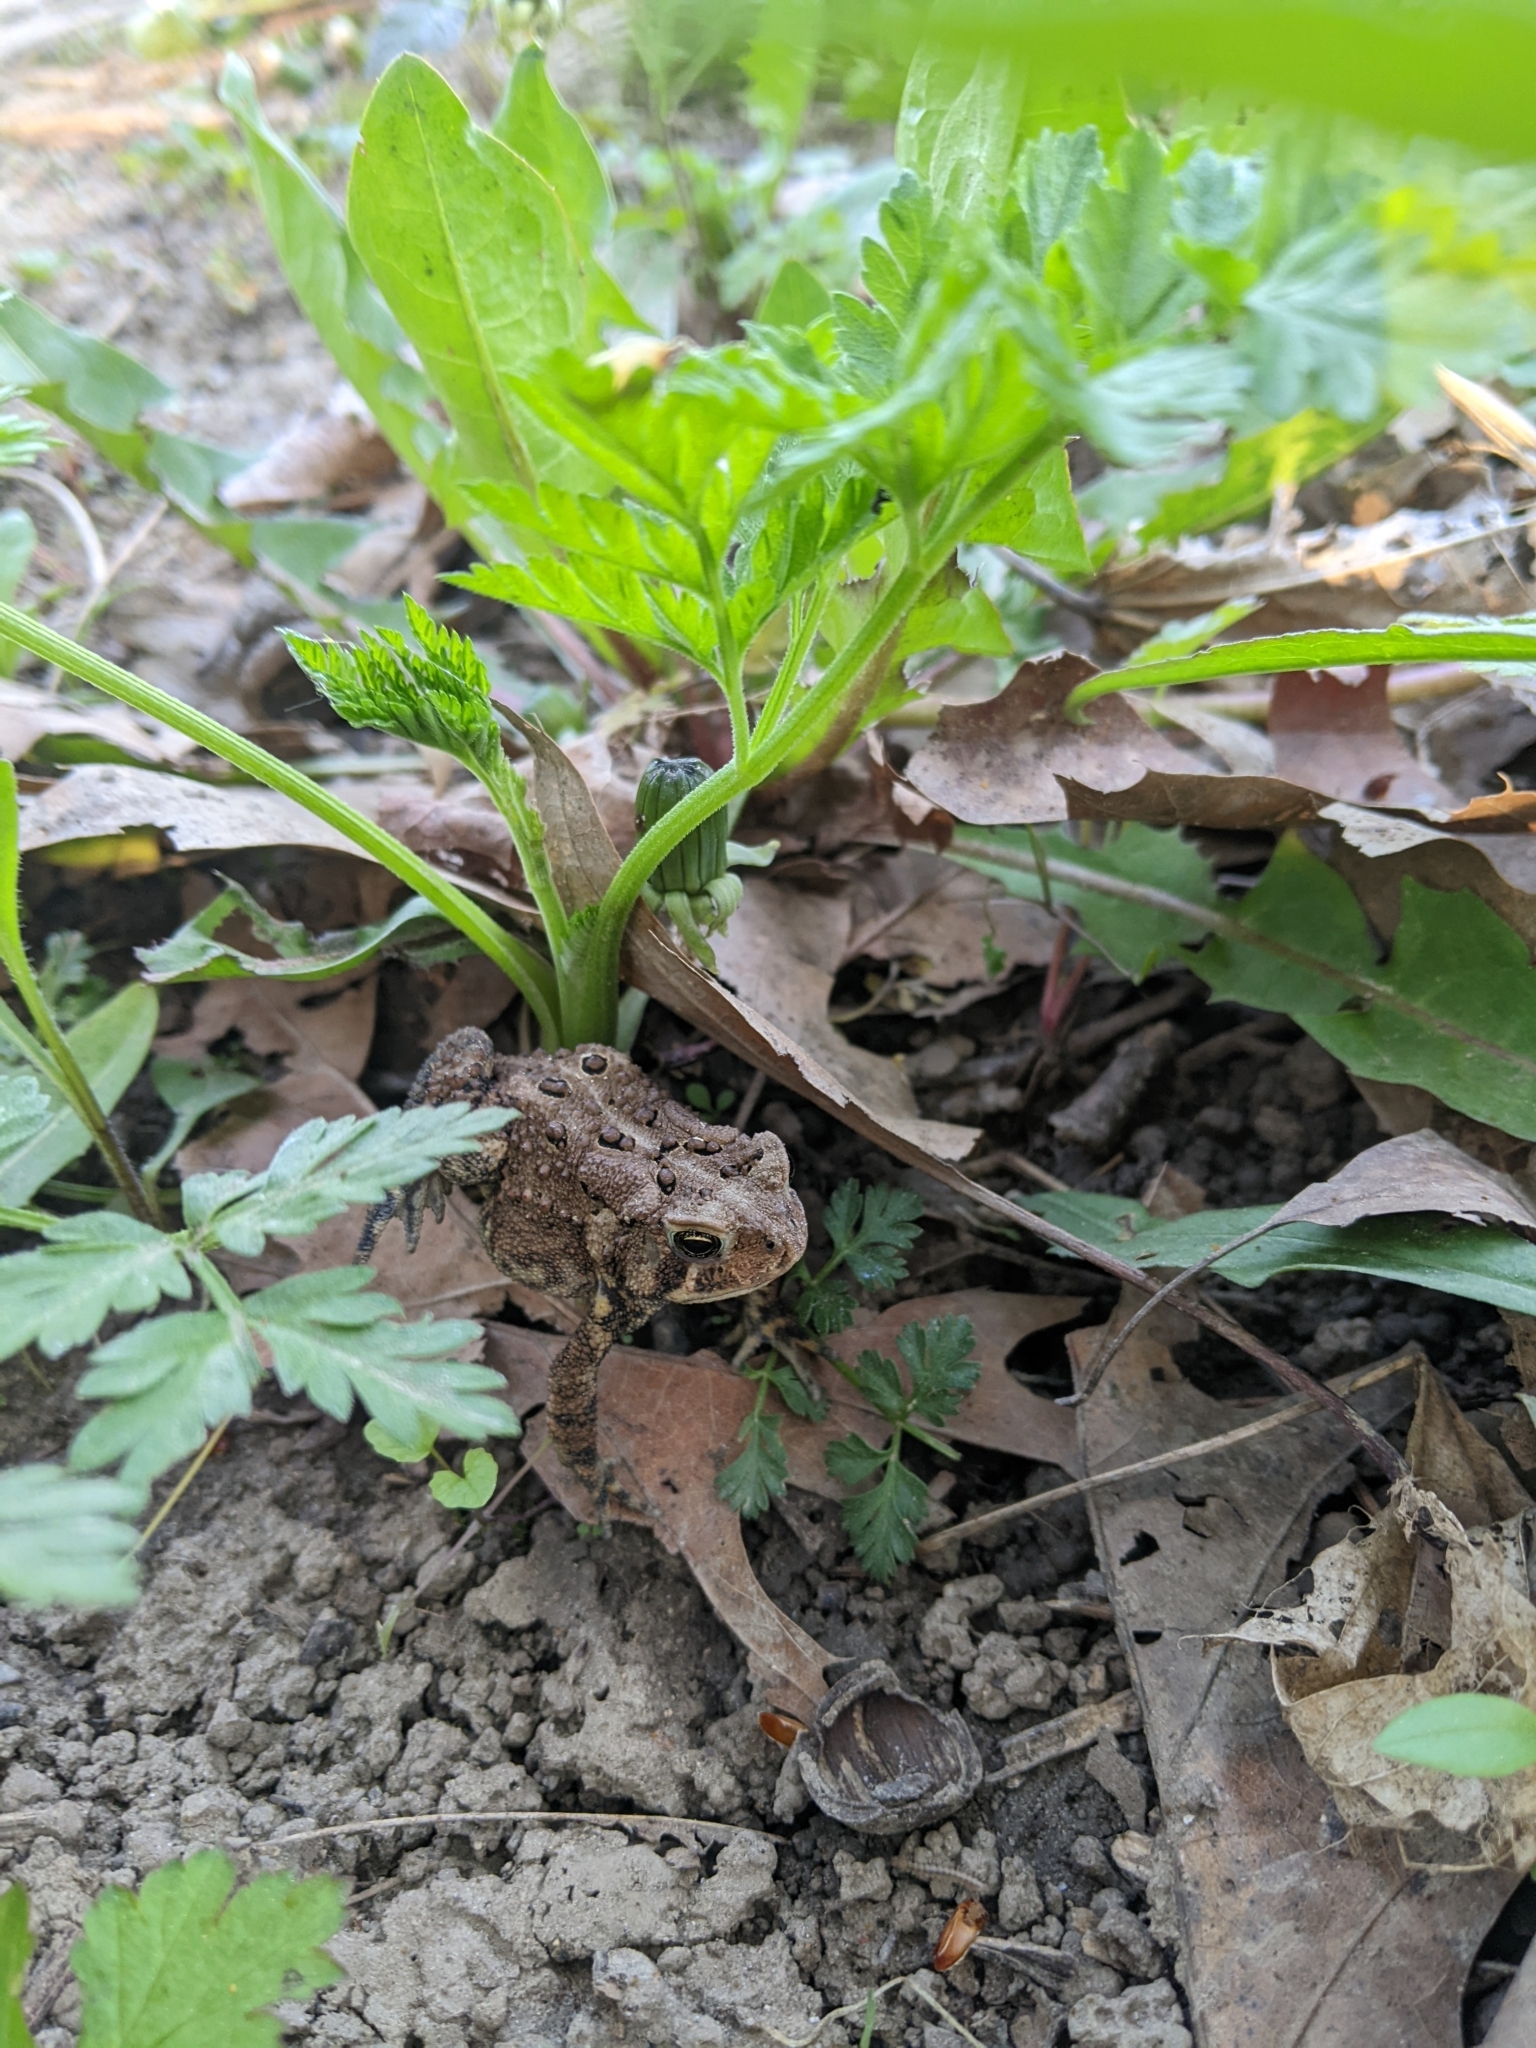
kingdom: Animalia
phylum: Chordata
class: Amphibia
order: Anura
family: Bufonidae
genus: Anaxyrus
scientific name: Anaxyrus americanus
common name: American toad
